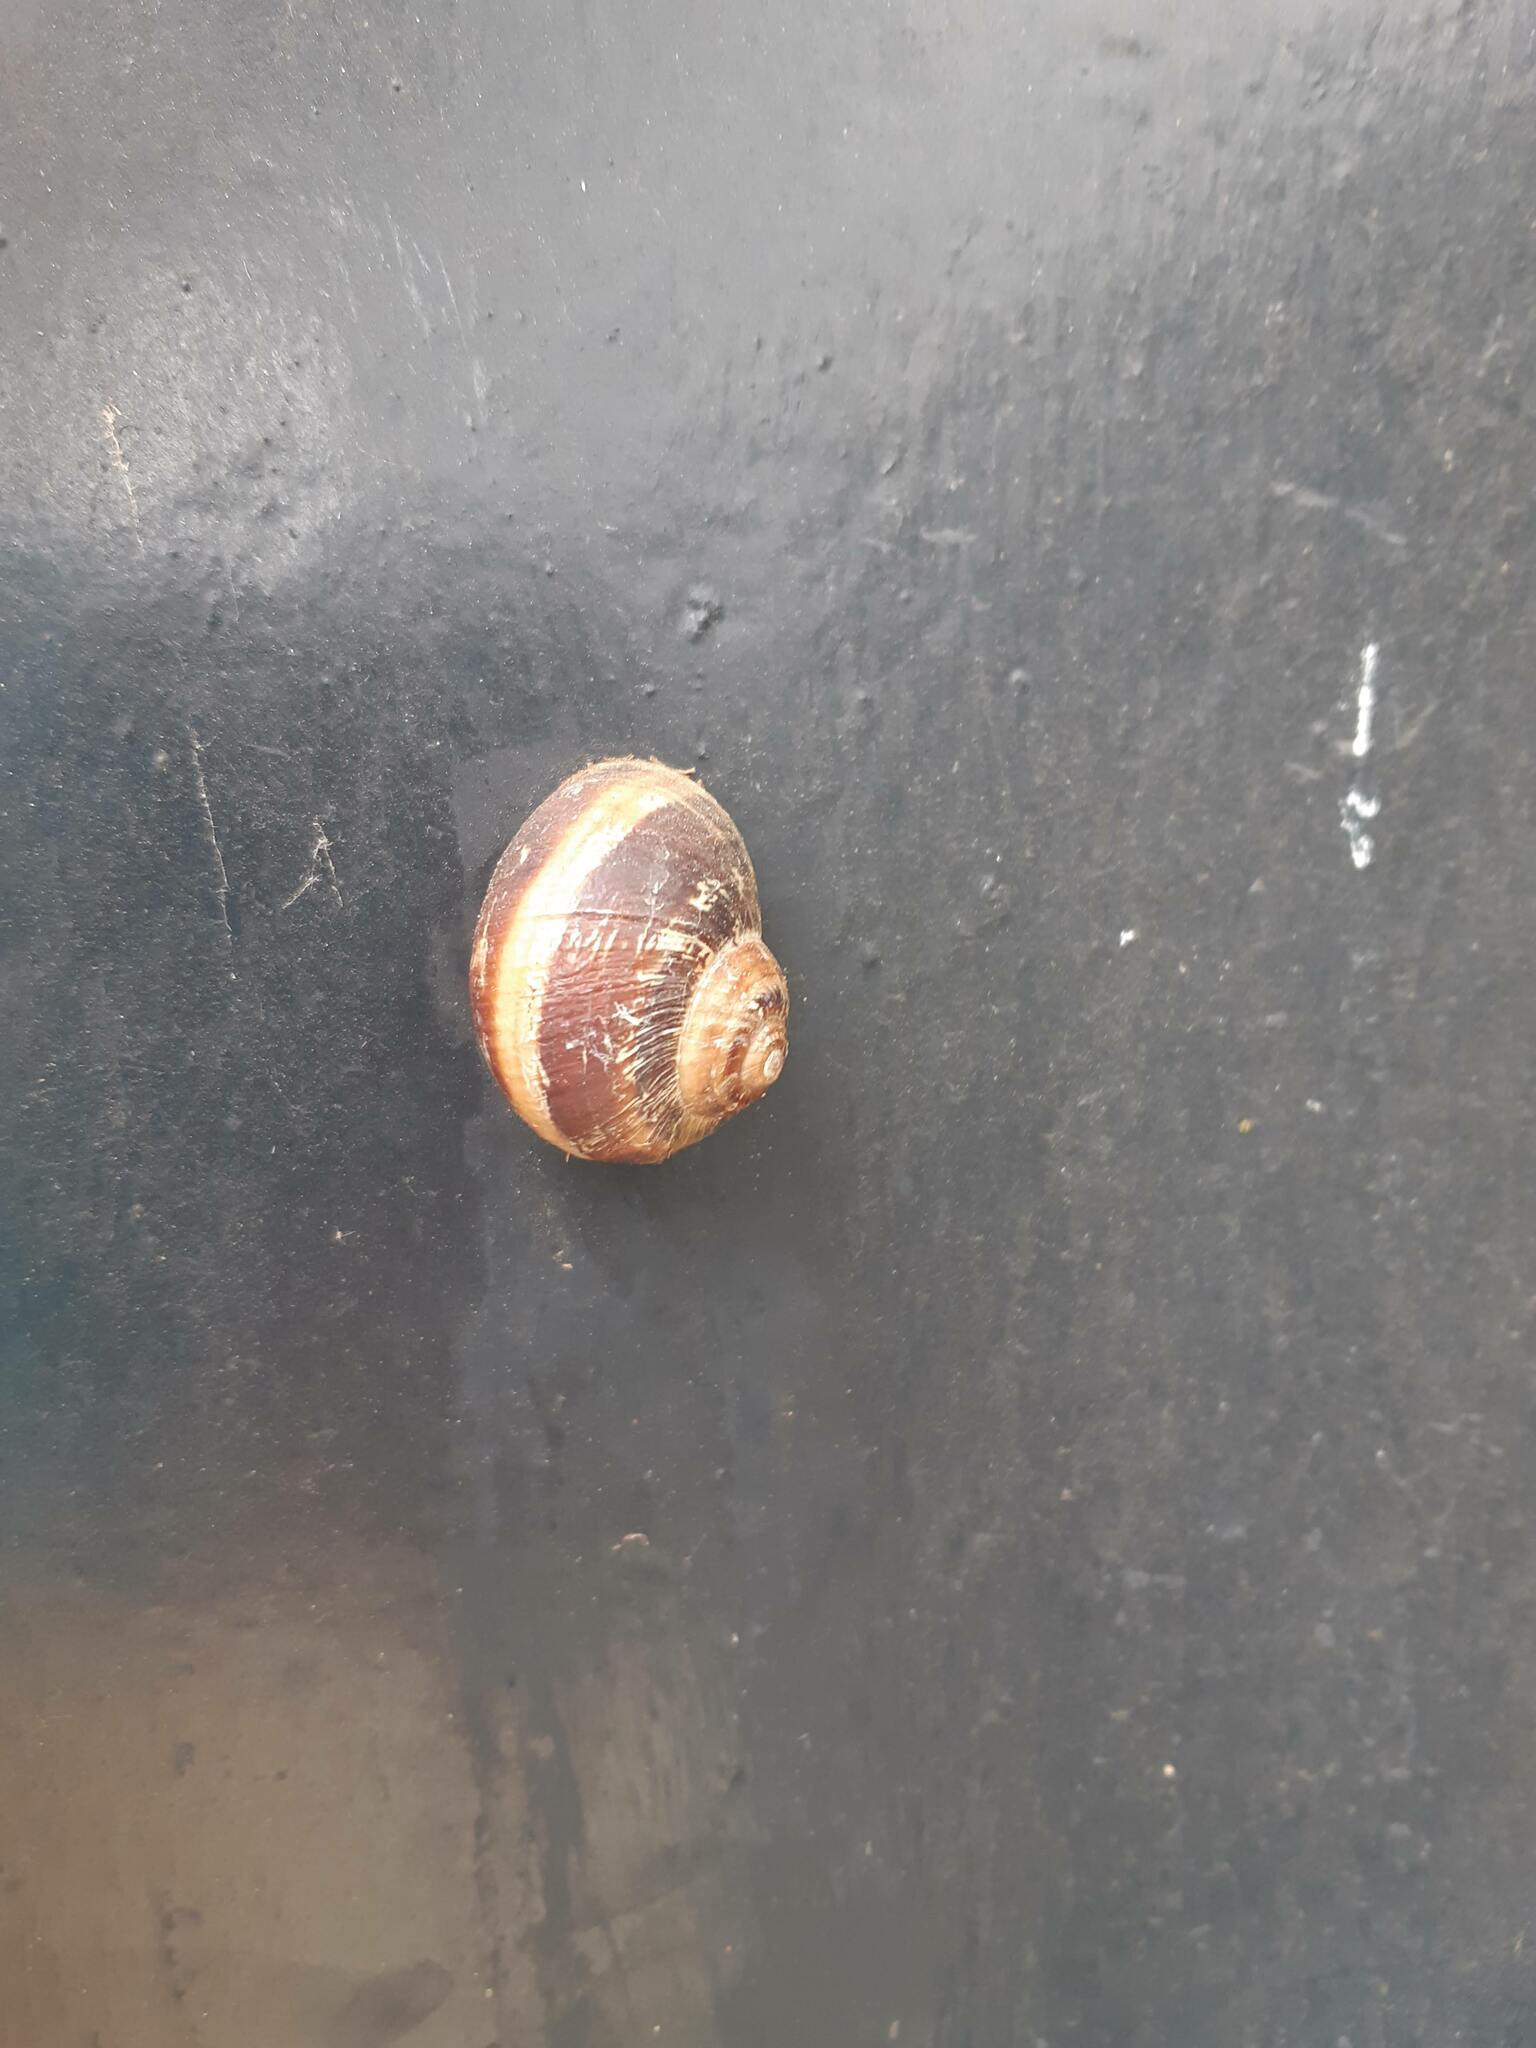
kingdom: Animalia
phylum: Mollusca
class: Gastropoda
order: Stylommatophora
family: Helicidae
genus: Cornu
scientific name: Cornu aspersum
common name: Brown garden snail
